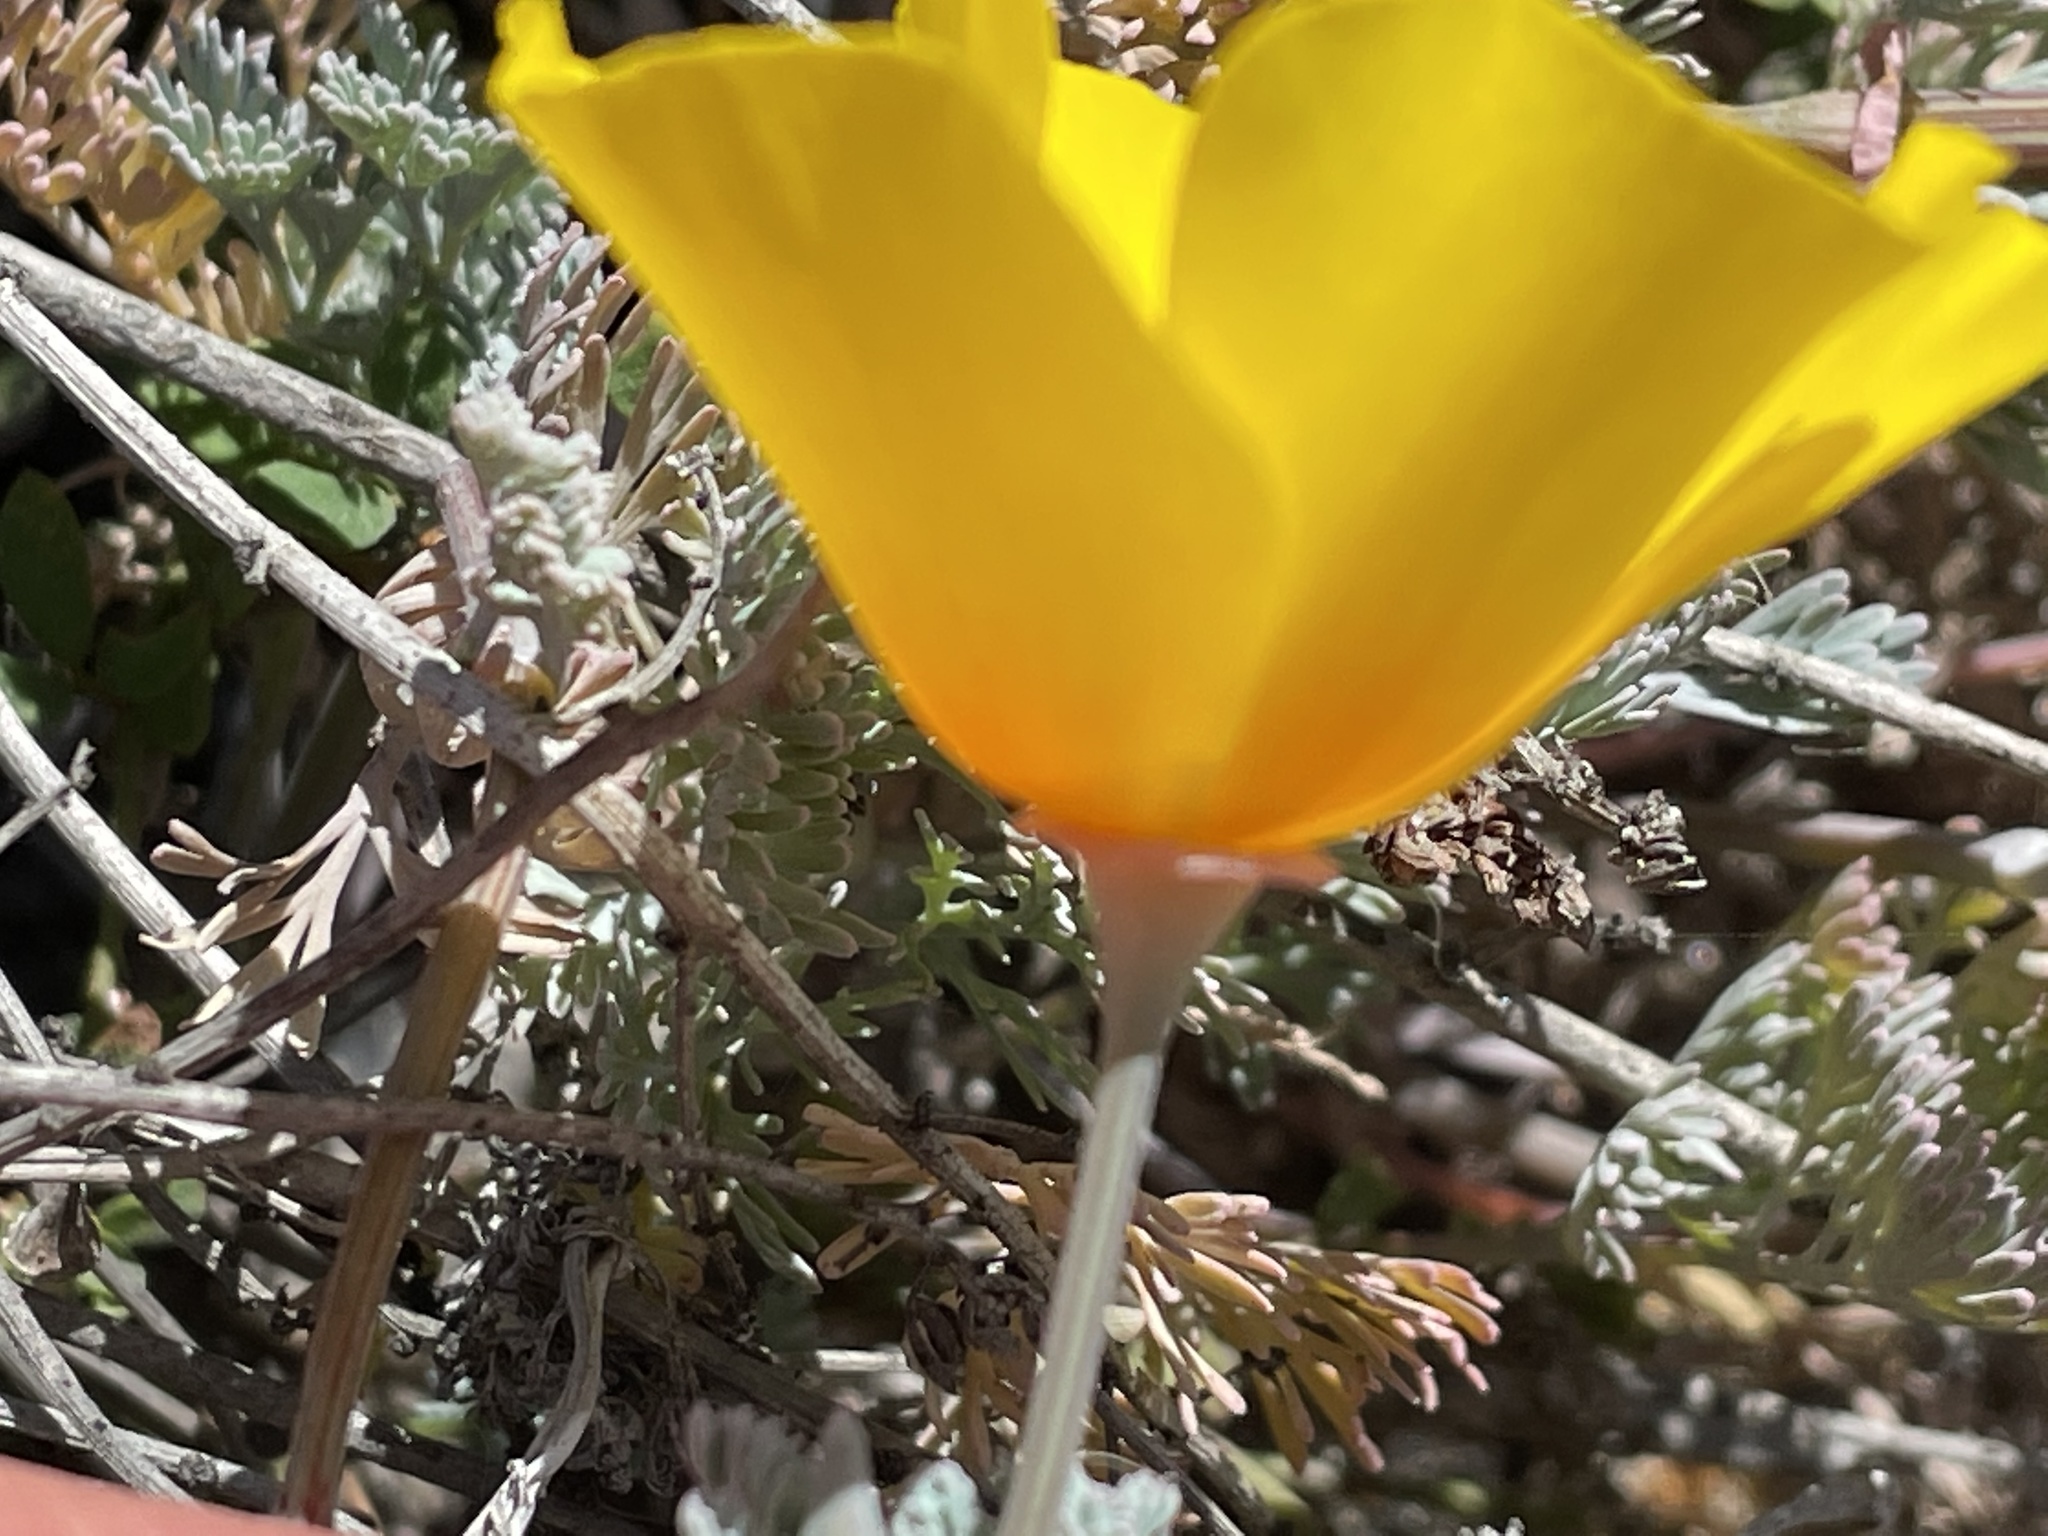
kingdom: Plantae
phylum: Tracheophyta
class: Magnoliopsida
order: Ranunculales
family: Papaveraceae
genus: Eschscholzia
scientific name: Eschscholzia californica
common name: California poppy
